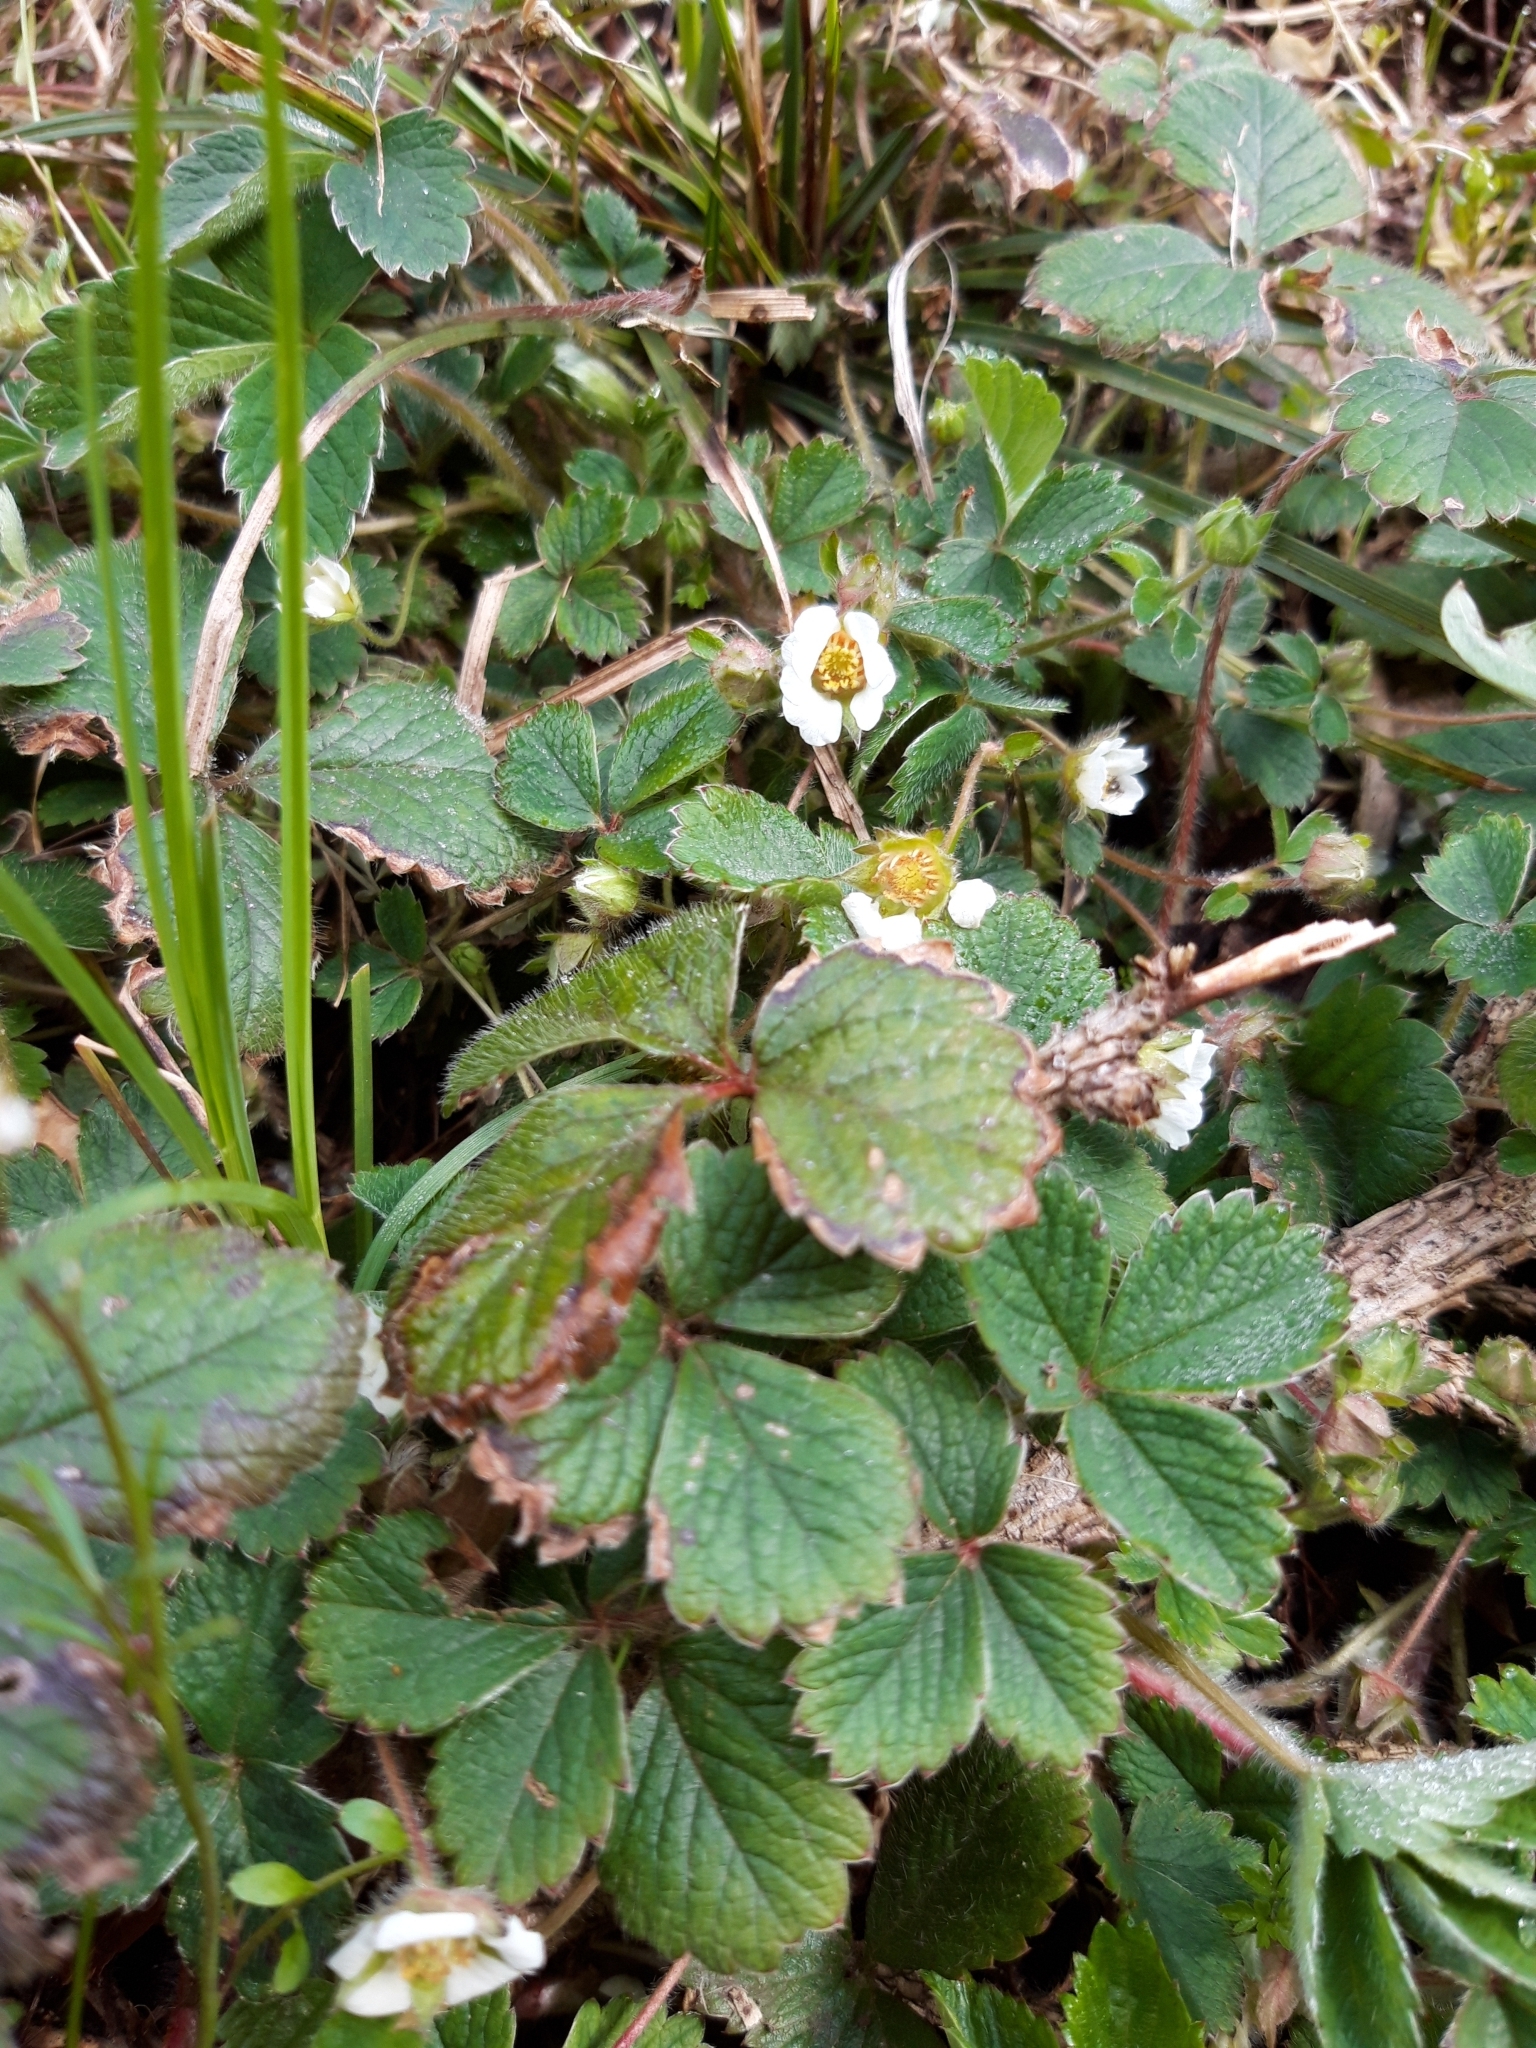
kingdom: Plantae
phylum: Tracheophyta
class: Magnoliopsida
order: Rosales
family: Rosaceae
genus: Potentilla
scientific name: Potentilla sterilis
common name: Barren strawberry
